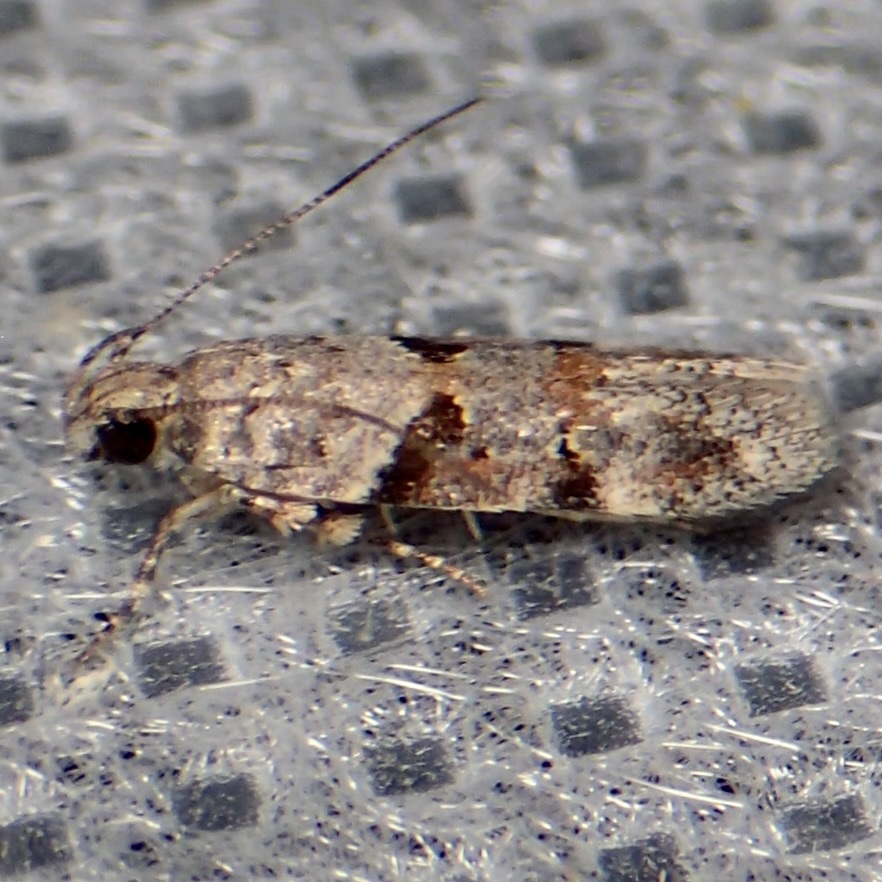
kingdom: Animalia
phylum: Arthropoda
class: Insecta
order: Lepidoptera
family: Gelechiidae
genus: Faculta
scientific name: Faculta inaequalis
